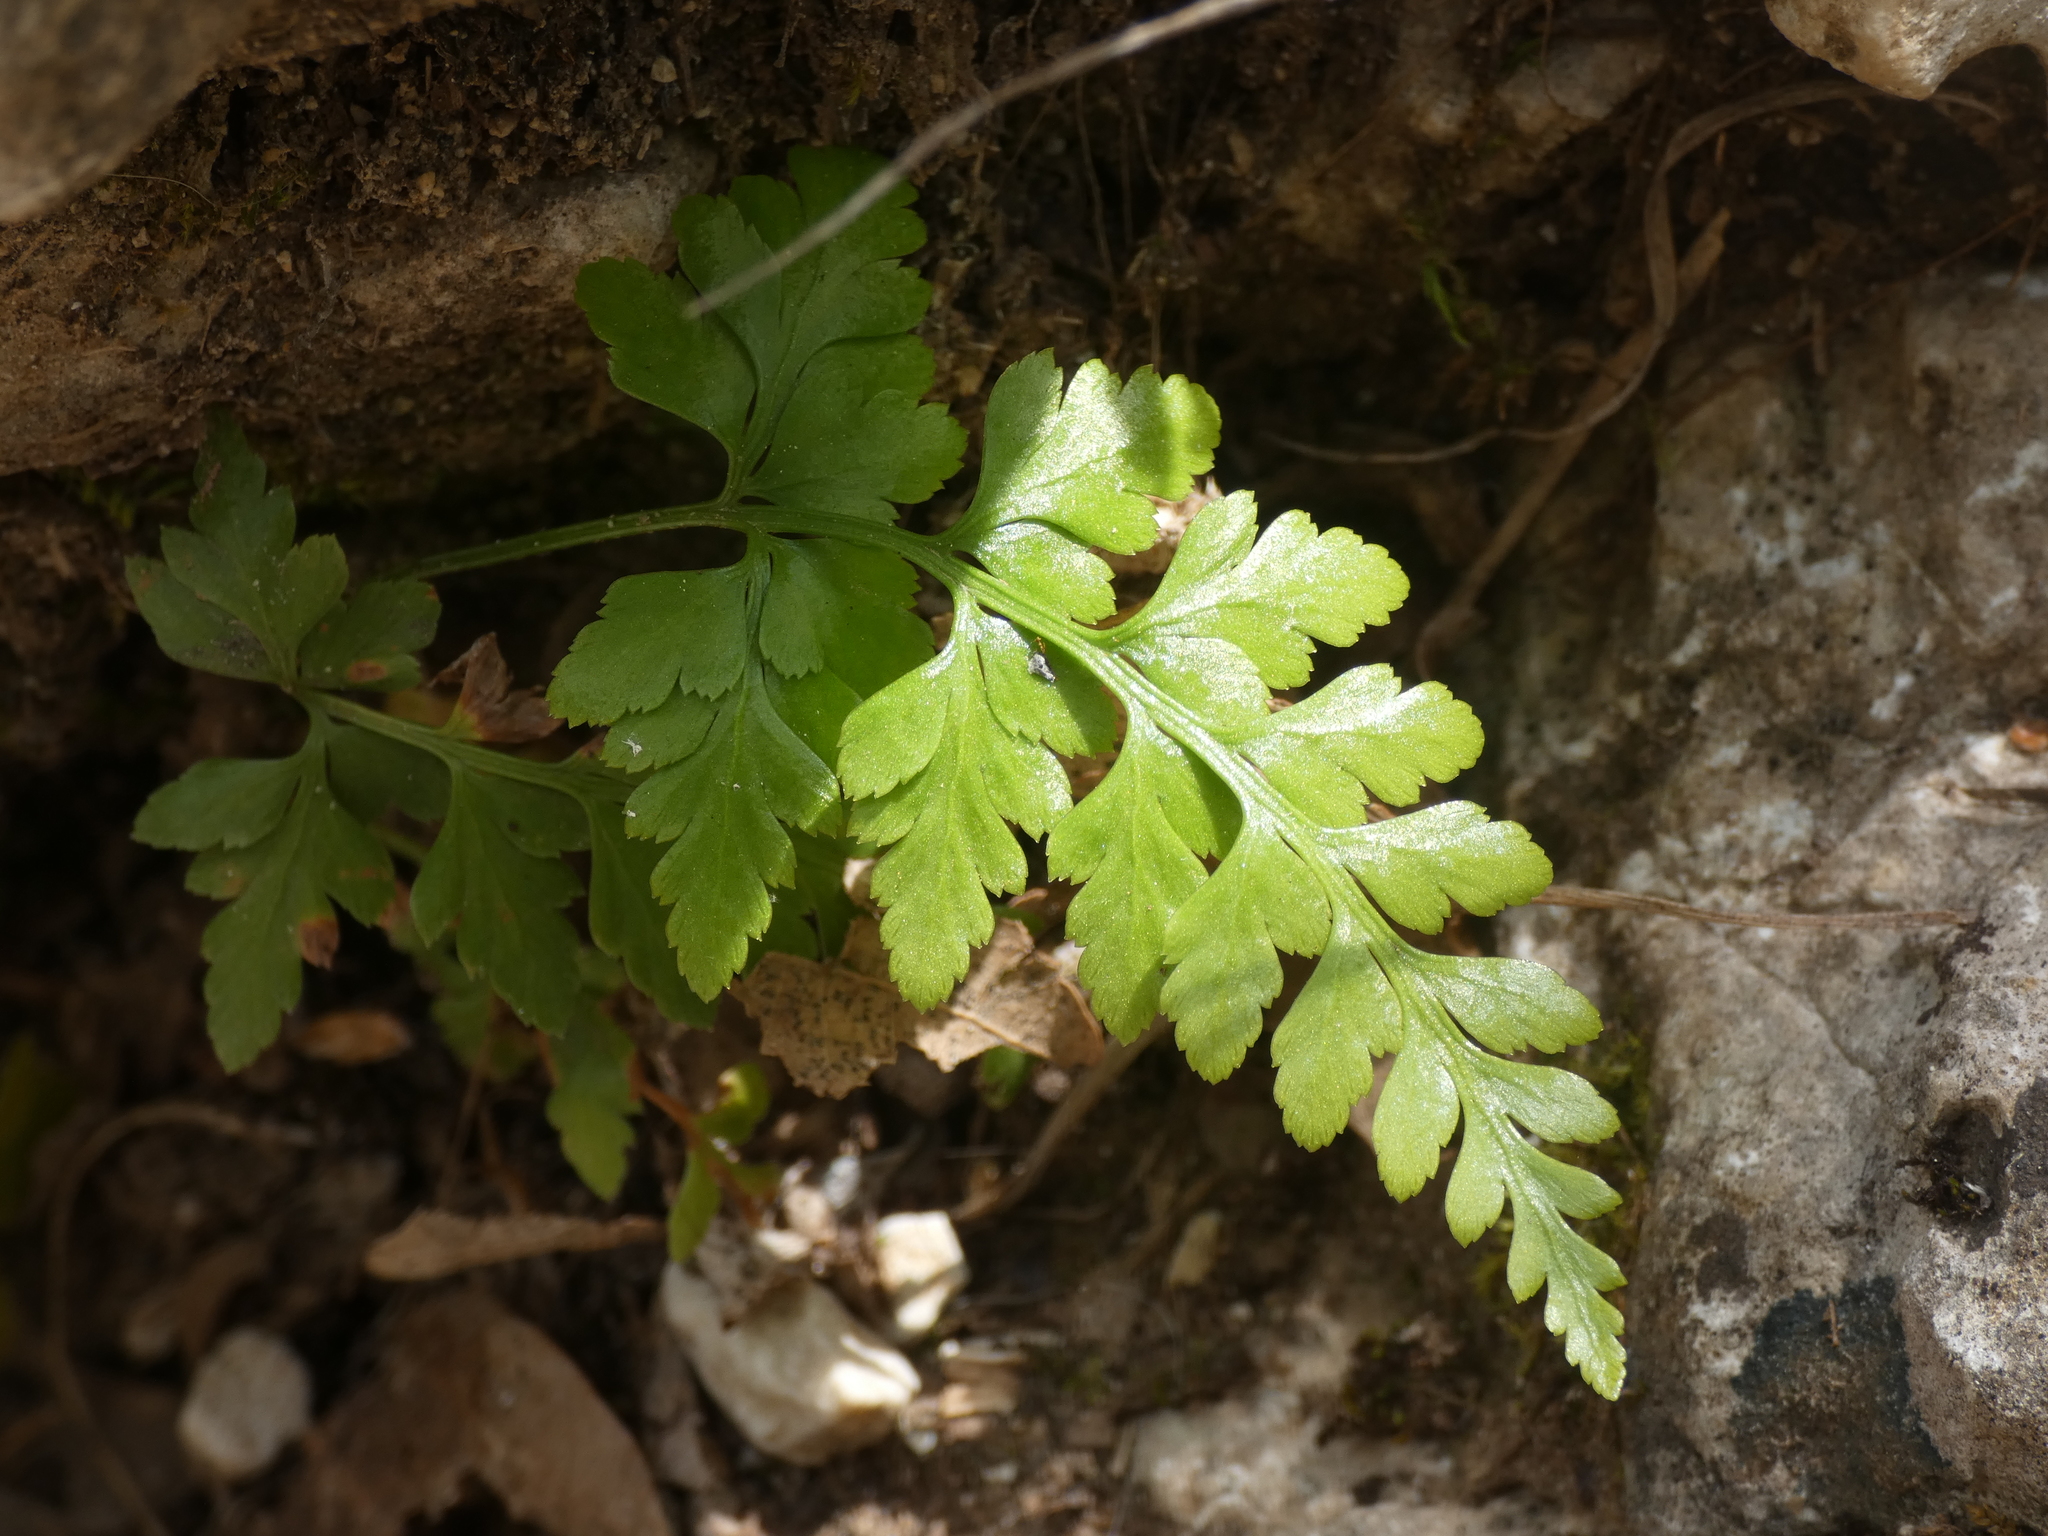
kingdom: Plantae
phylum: Tracheophyta
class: Polypodiopsida
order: Polypodiales
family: Aspleniaceae
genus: Asplenium
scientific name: Asplenium adiantum-nigrum
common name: Black spleenwort
